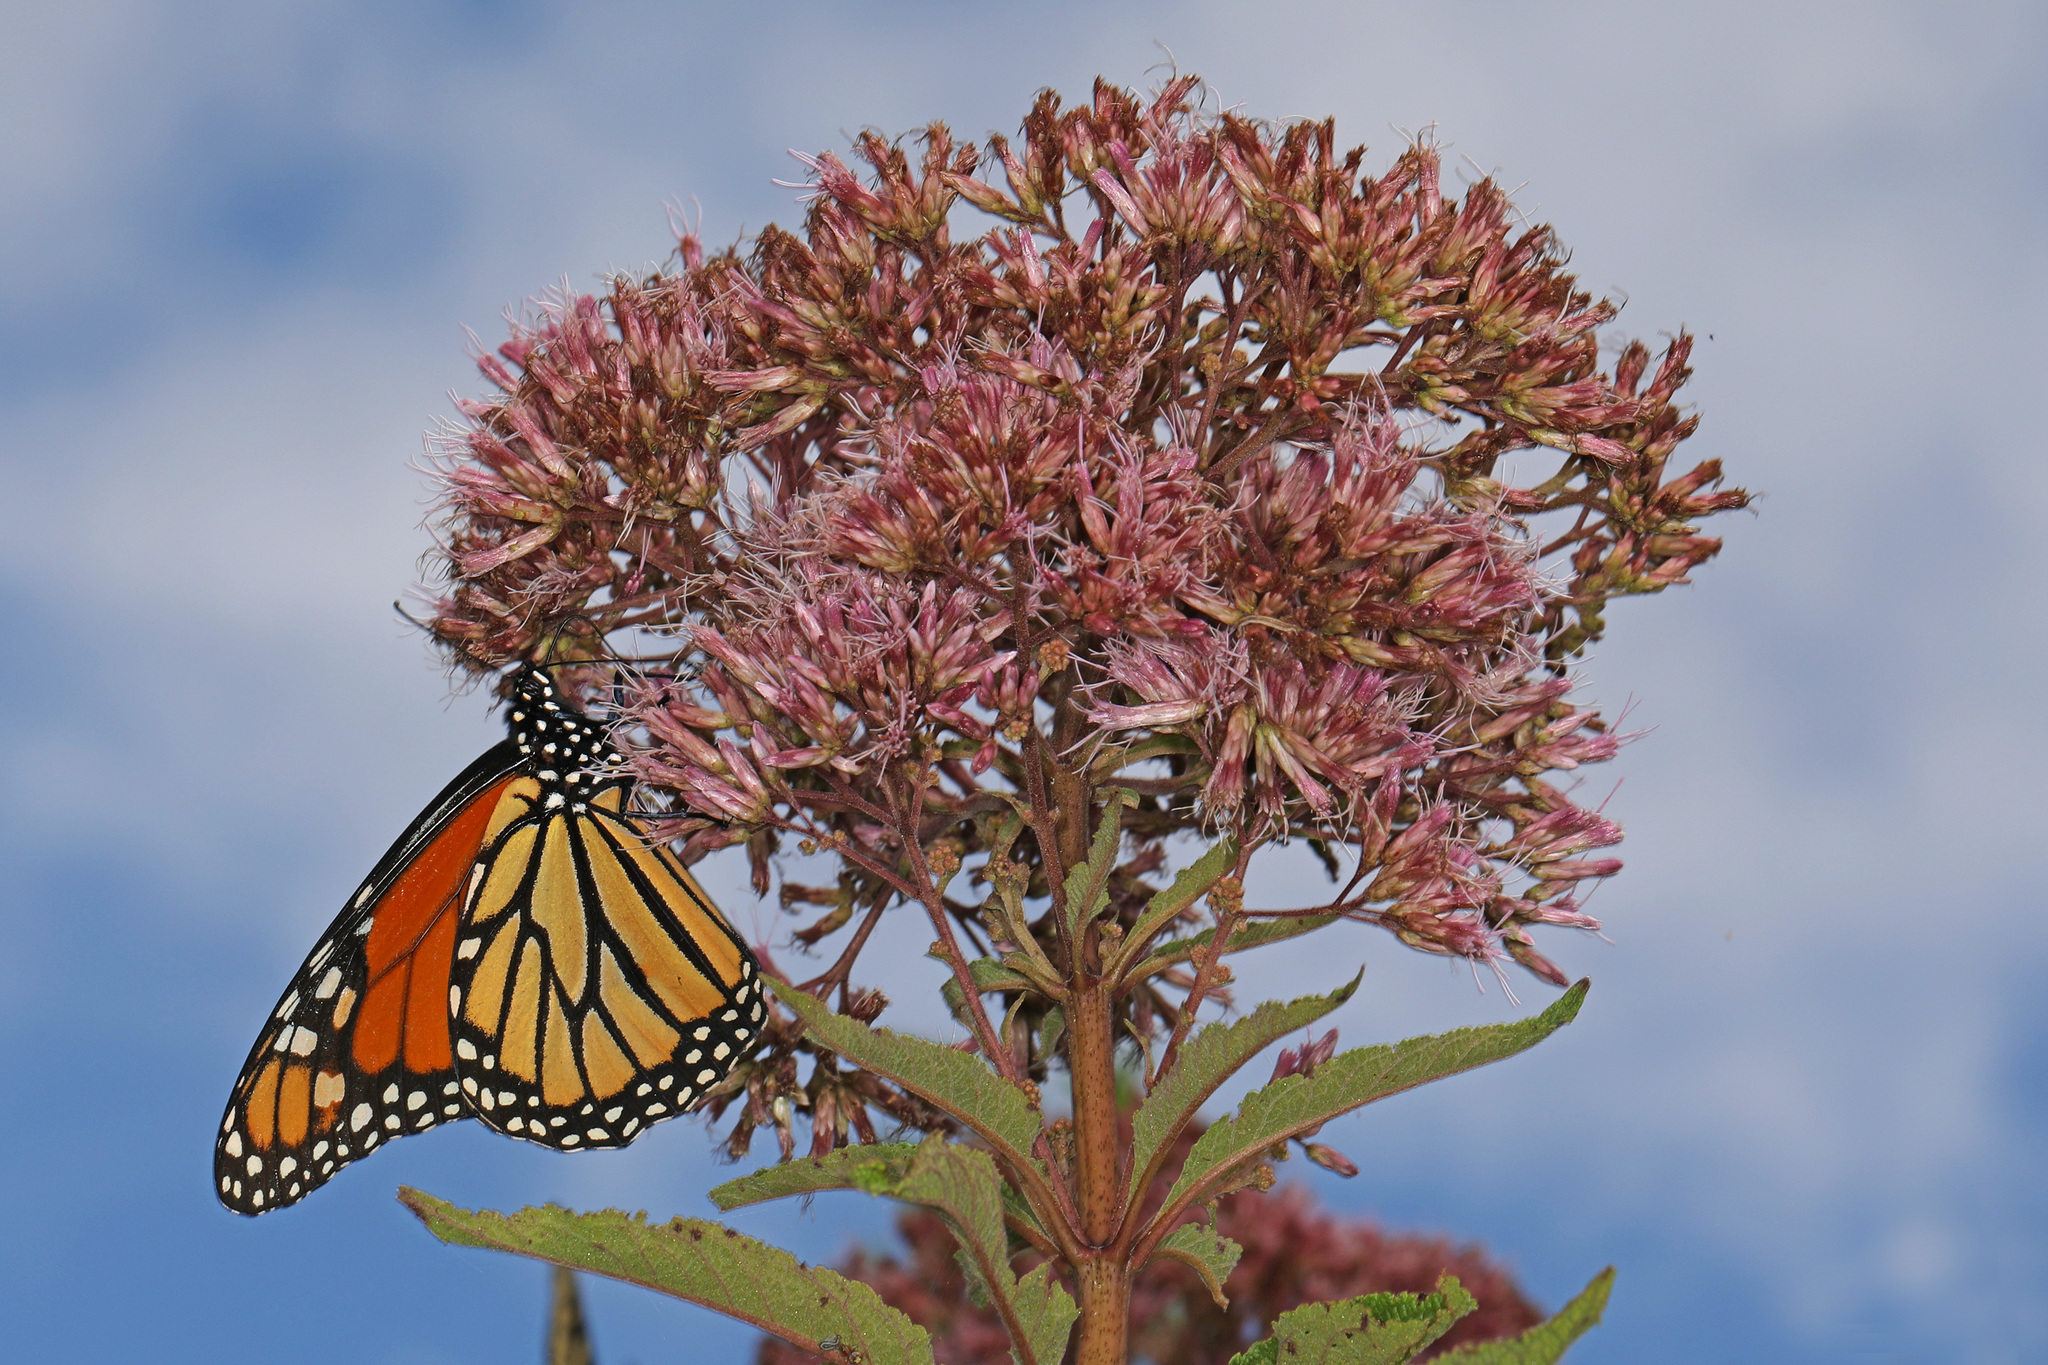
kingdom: Animalia
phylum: Arthropoda
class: Insecta
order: Lepidoptera
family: Nymphalidae
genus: Danaus
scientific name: Danaus plexippus
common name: Monarch
